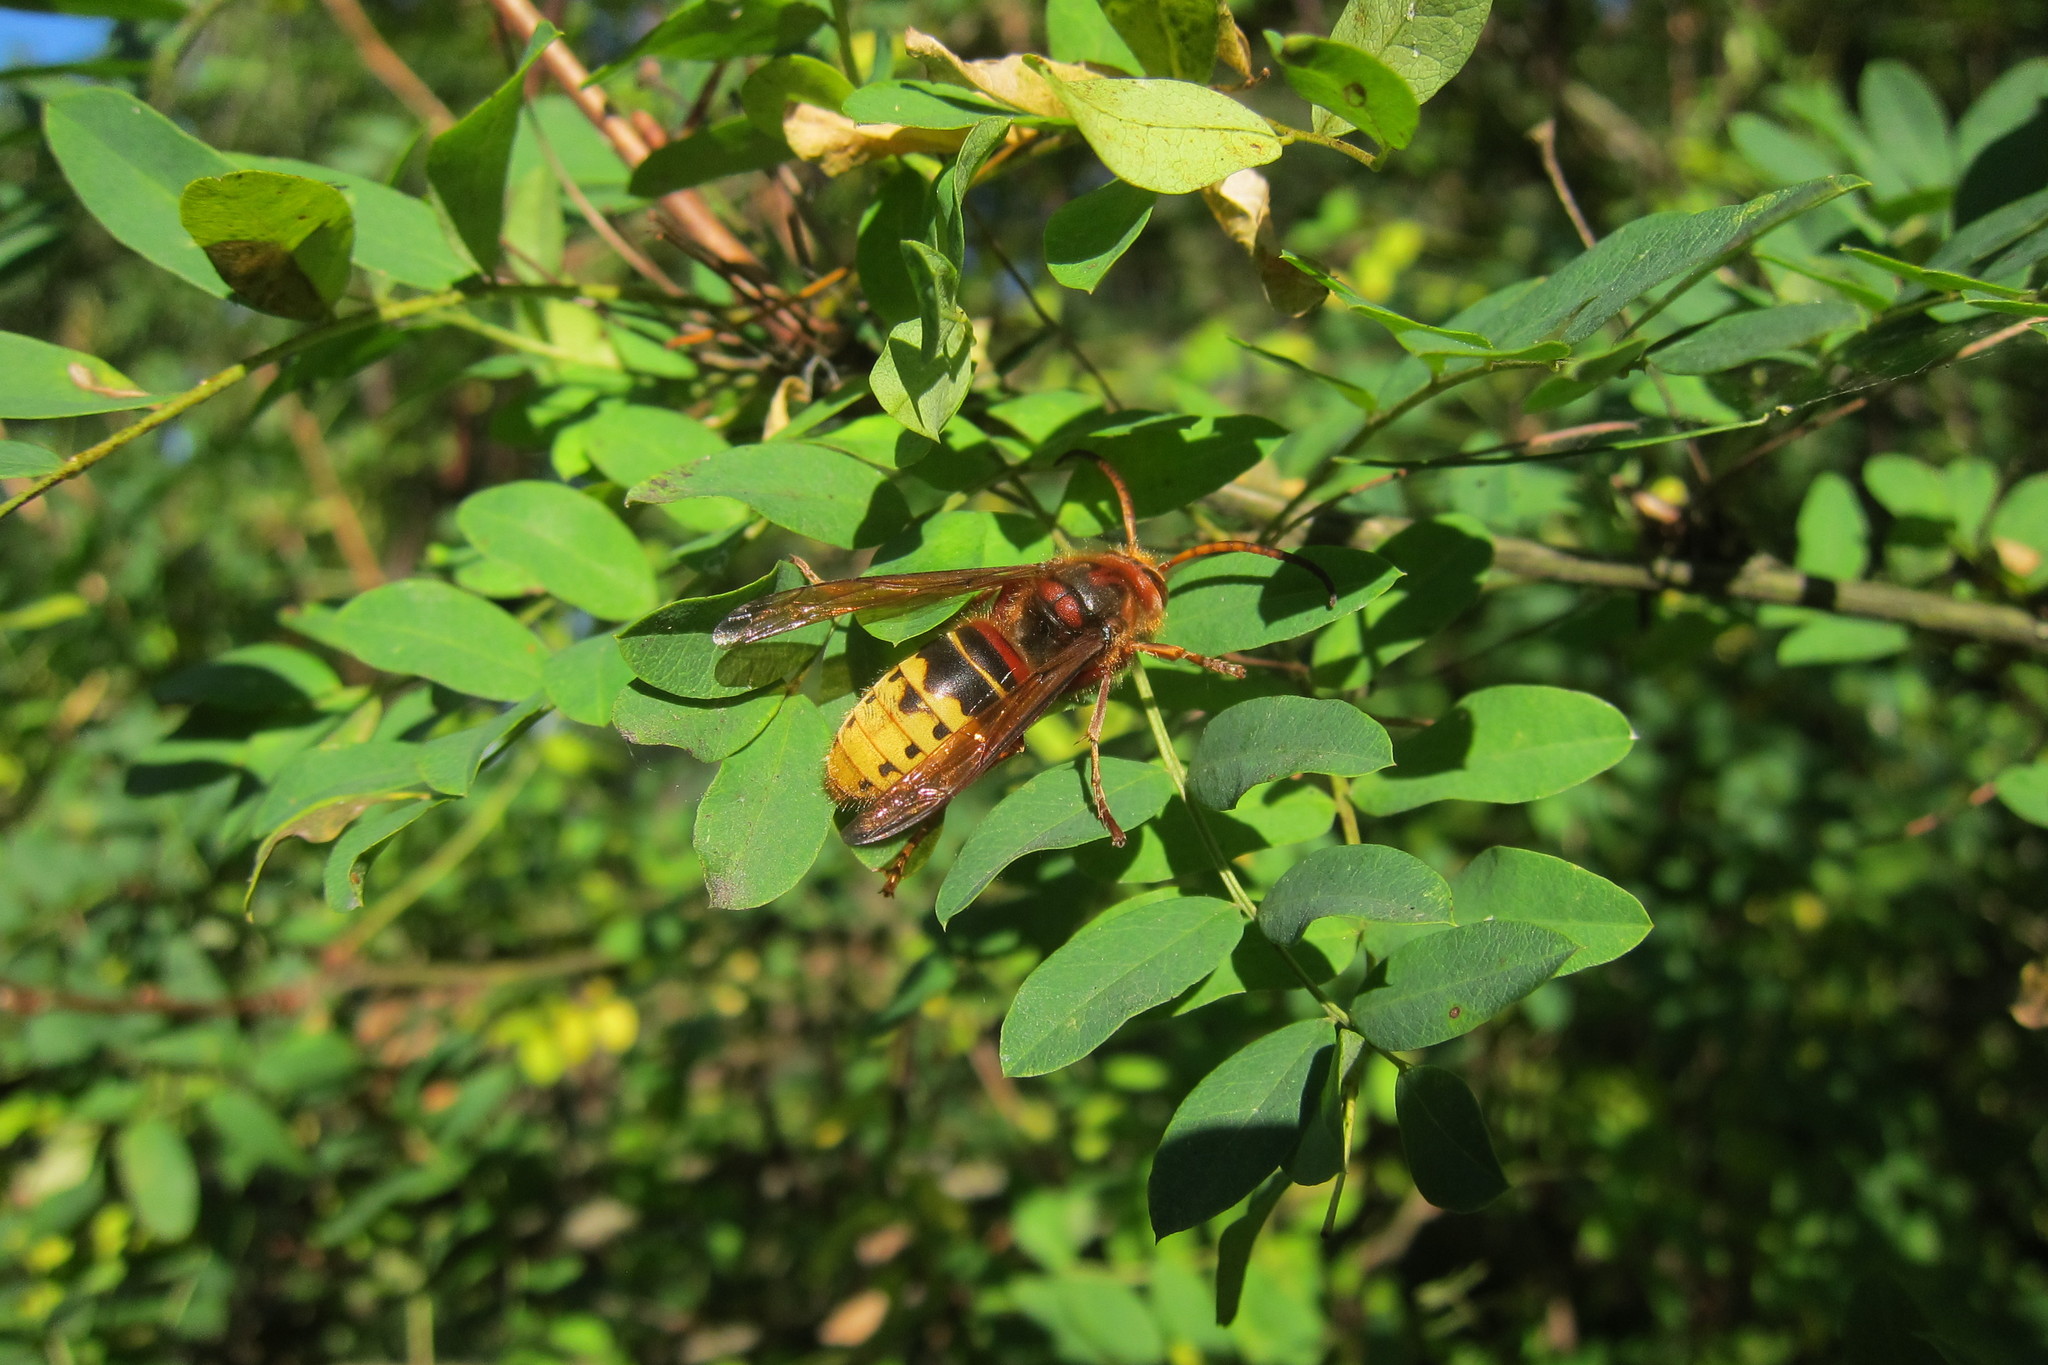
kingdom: Animalia
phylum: Arthropoda
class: Insecta
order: Hymenoptera
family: Vespidae
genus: Vespa
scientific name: Vespa crabro
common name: Hornet
